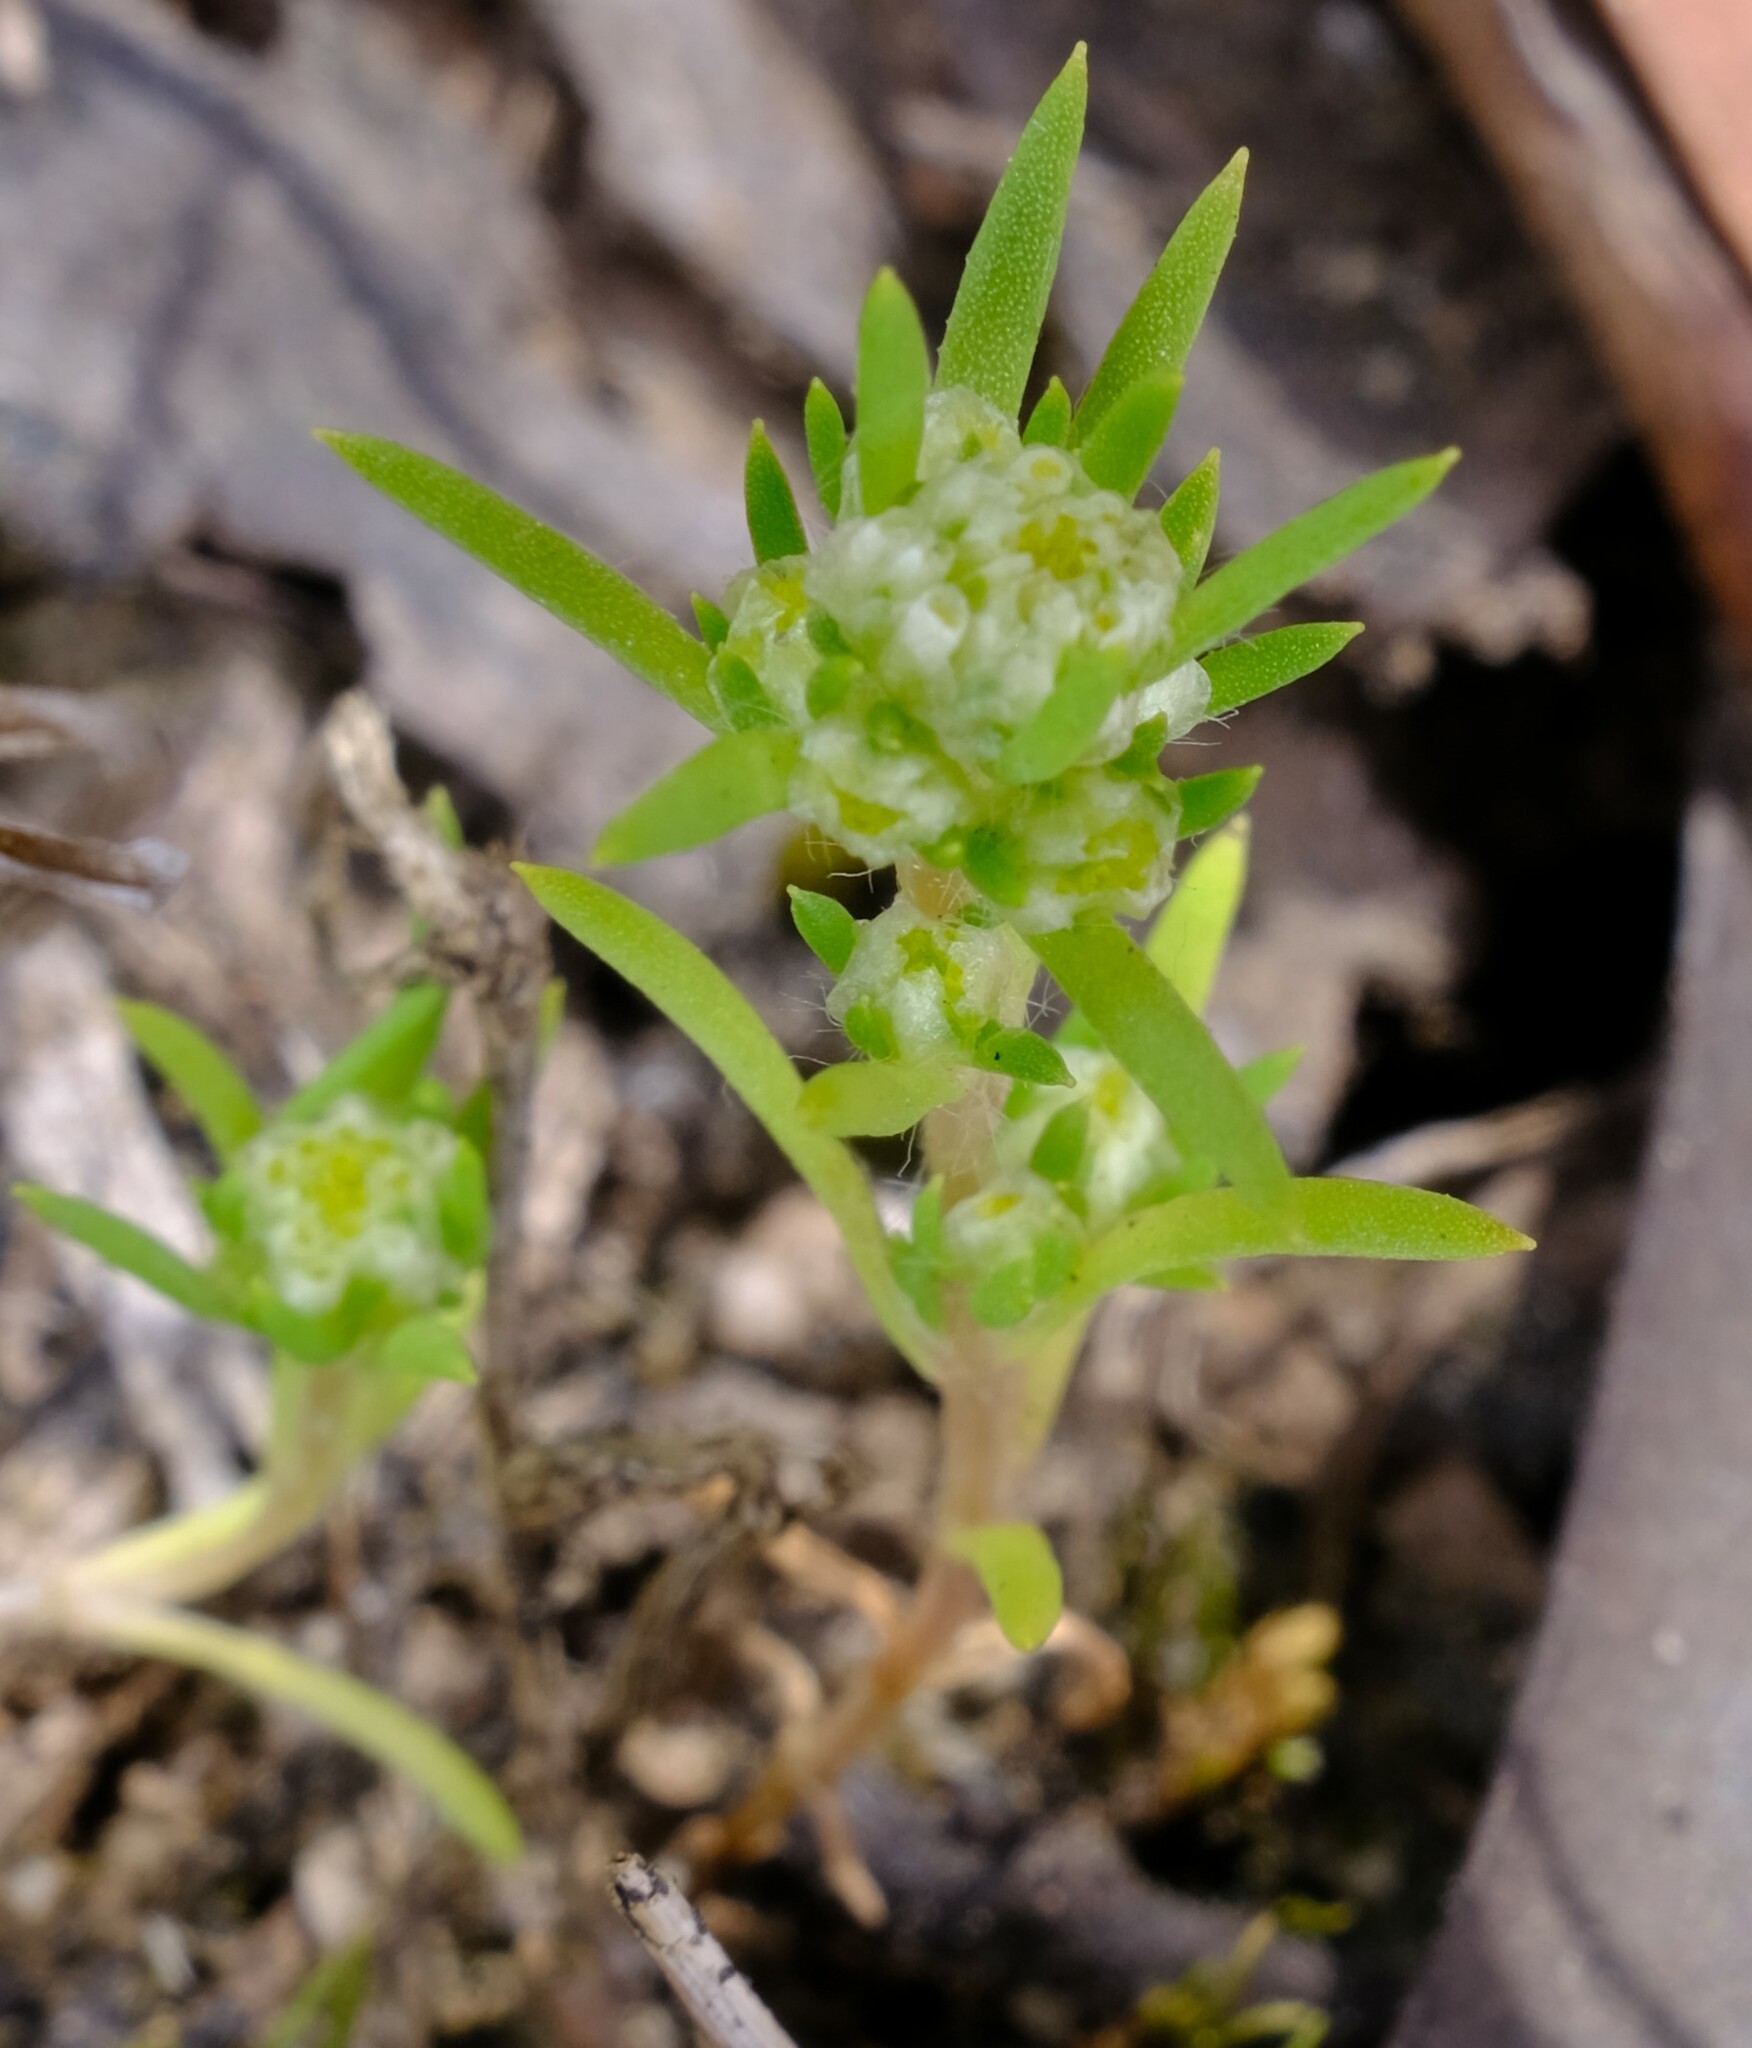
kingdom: Plantae
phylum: Tracheophyta
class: Magnoliopsida
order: Asterales
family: Asteraceae
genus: Siloxerus
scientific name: Siloxerus multiflorus
